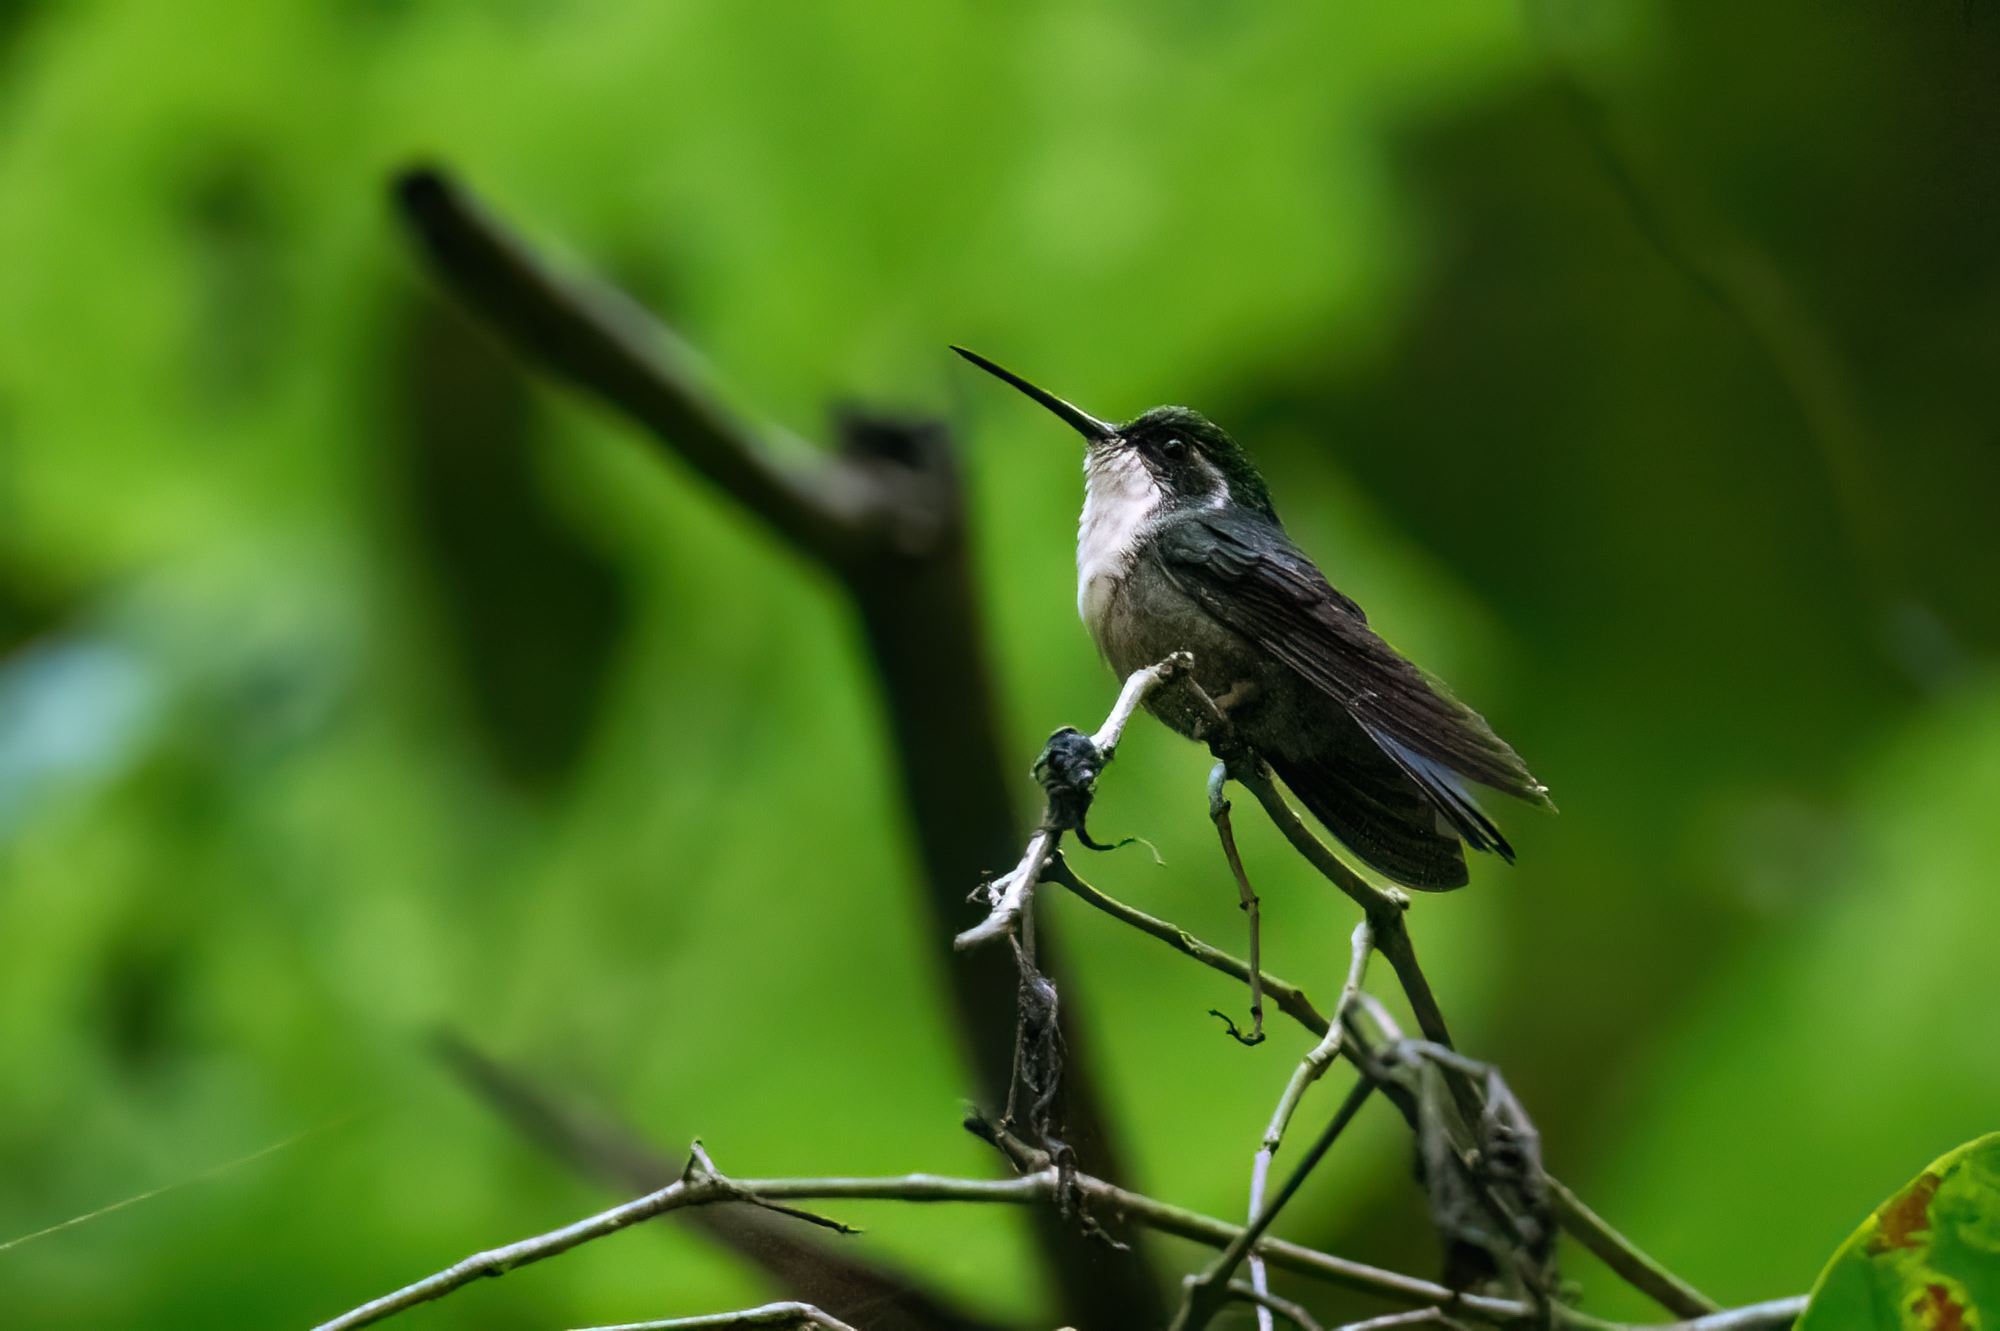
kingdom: Animalia
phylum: Chordata
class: Aves
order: Apodiformes
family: Trochilidae
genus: Lampornis
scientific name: Lampornis viridipallens
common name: Green-throated mountain-gem
